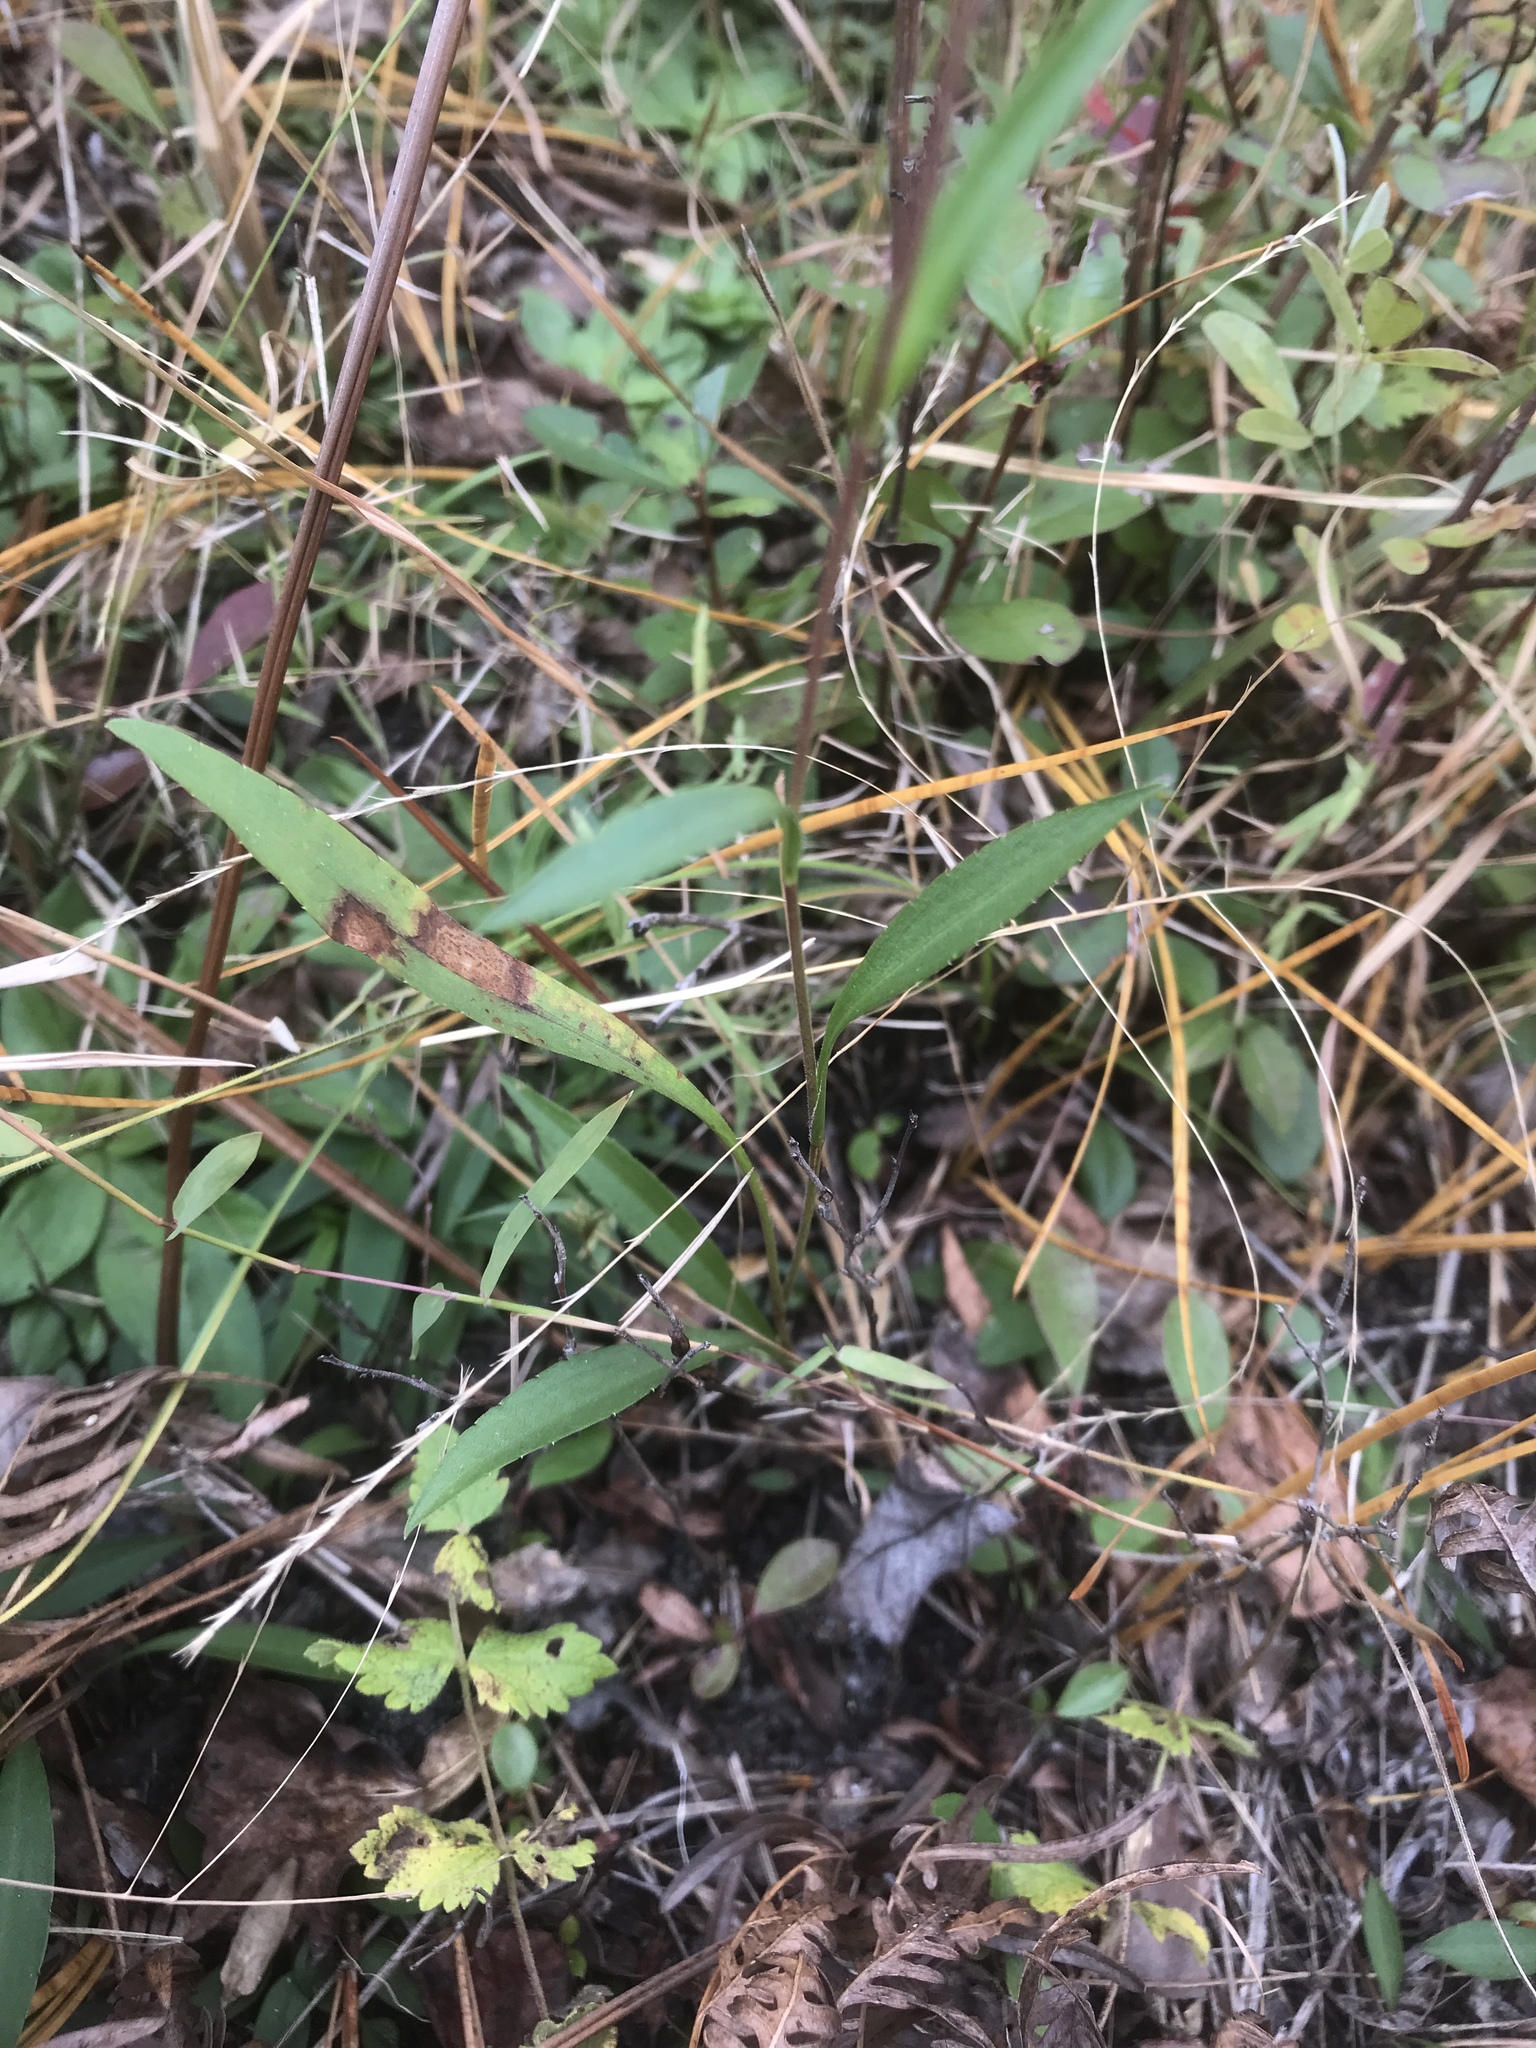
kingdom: Plantae
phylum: Tracheophyta
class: Magnoliopsida
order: Asterales
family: Asteraceae
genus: Eurybia
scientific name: Eurybia paludosa
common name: Southern swamp aster
